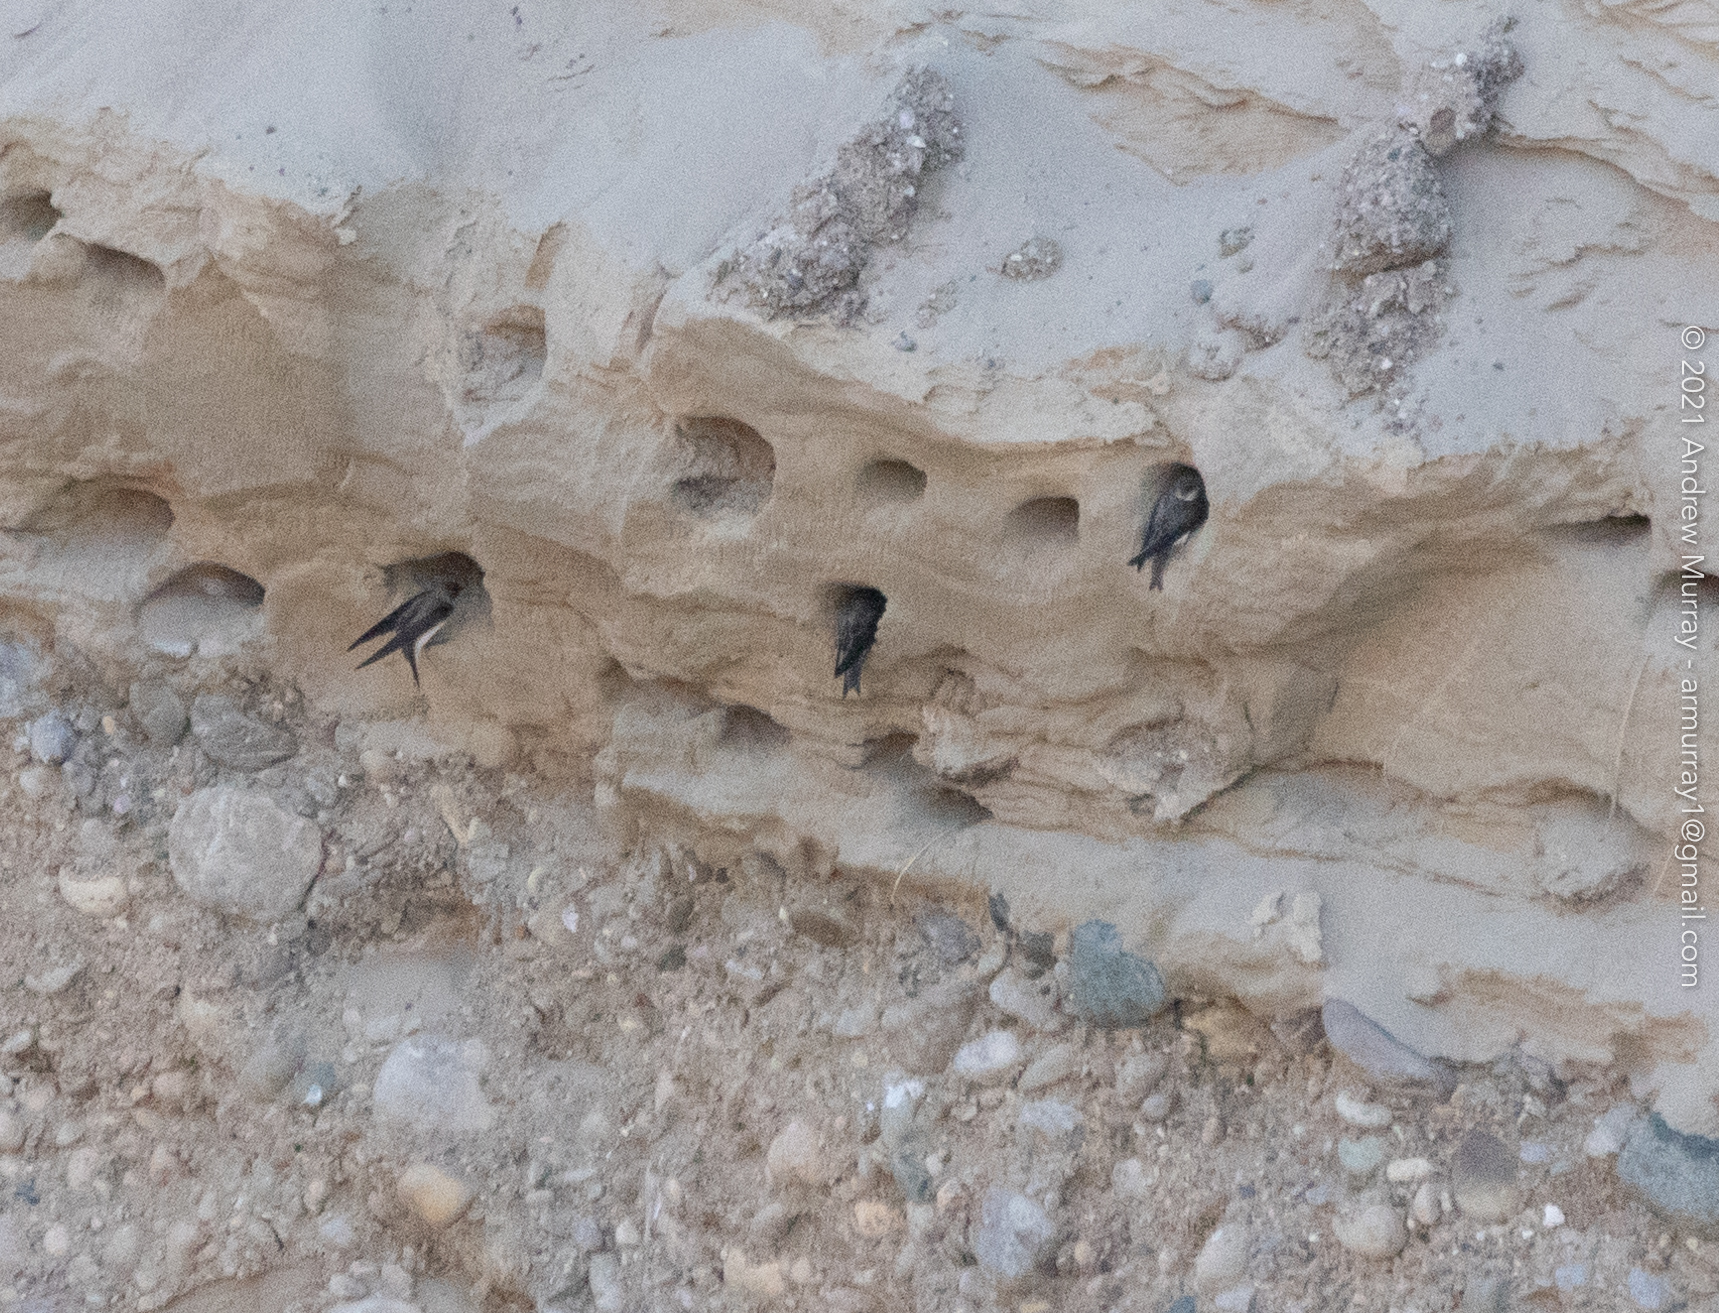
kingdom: Animalia
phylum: Chordata
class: Aves
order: Passeriformes
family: Hirundinidae
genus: Riparia
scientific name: Riparia riparia
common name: Sand martin
